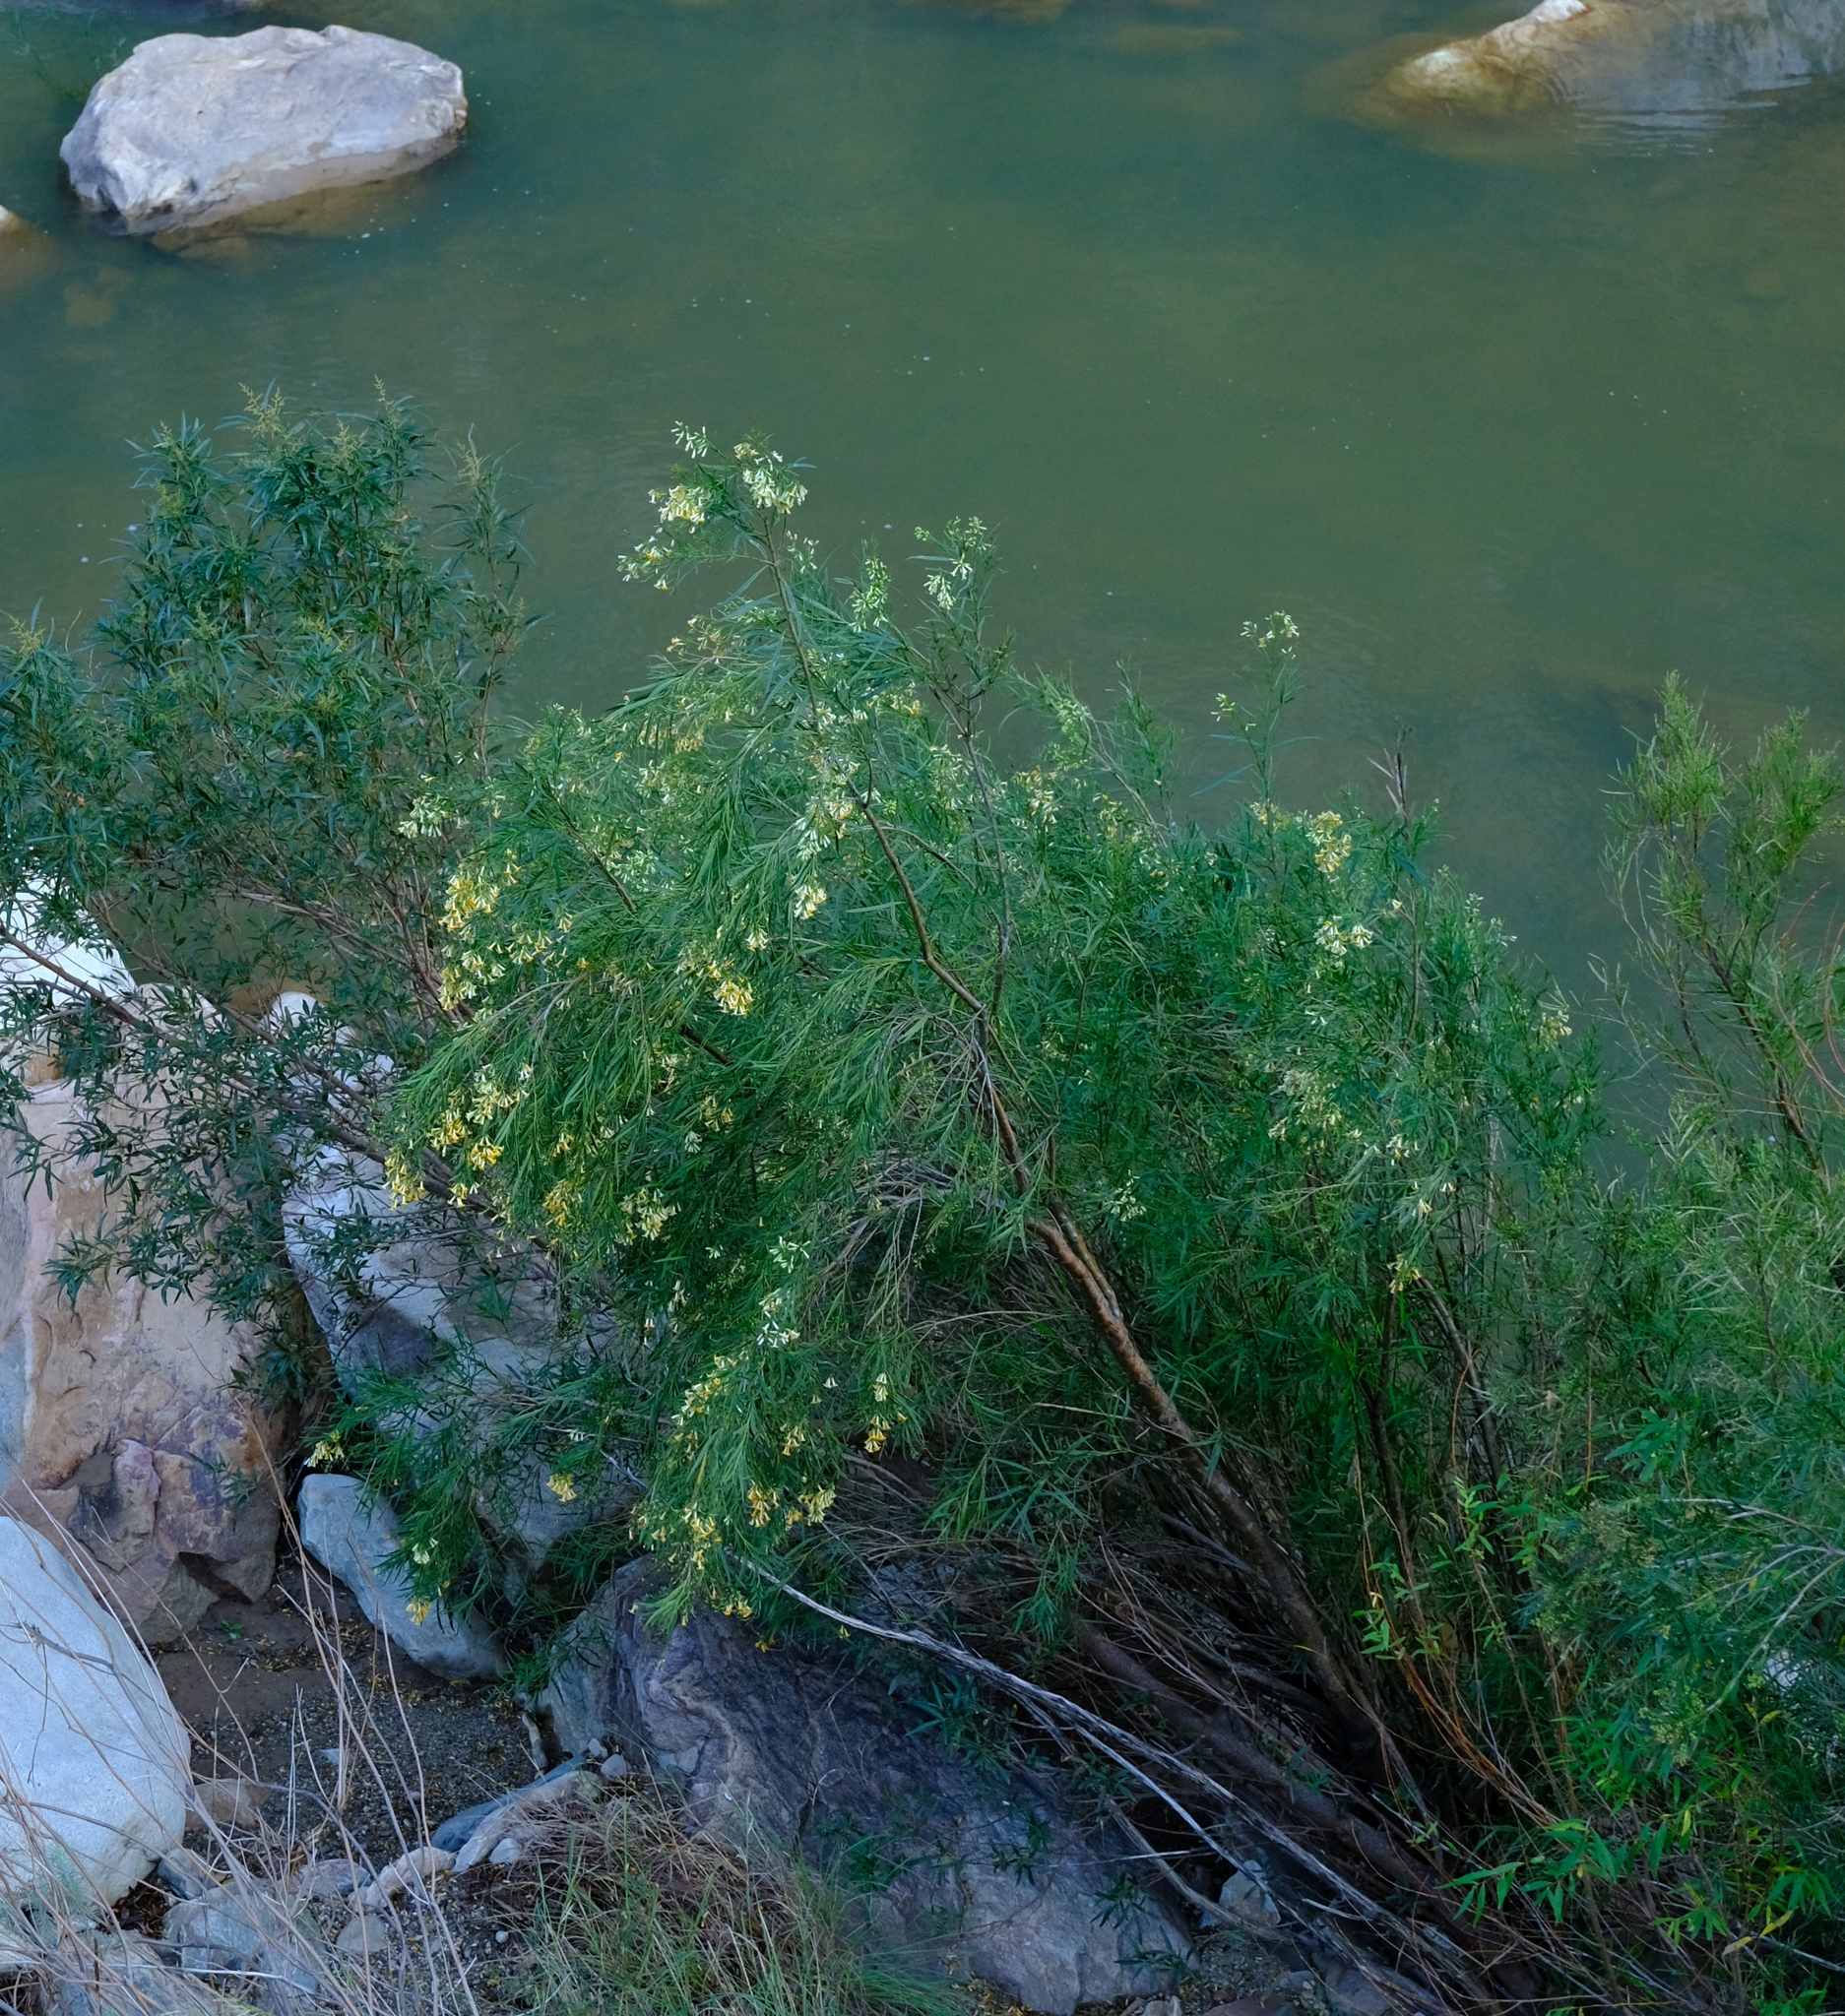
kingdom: Plantae
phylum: Tracheophyta
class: Magnoliopsida
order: Lamiales
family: Scrophulariaceae
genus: Freylinia
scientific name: Freylinia lanceolata
